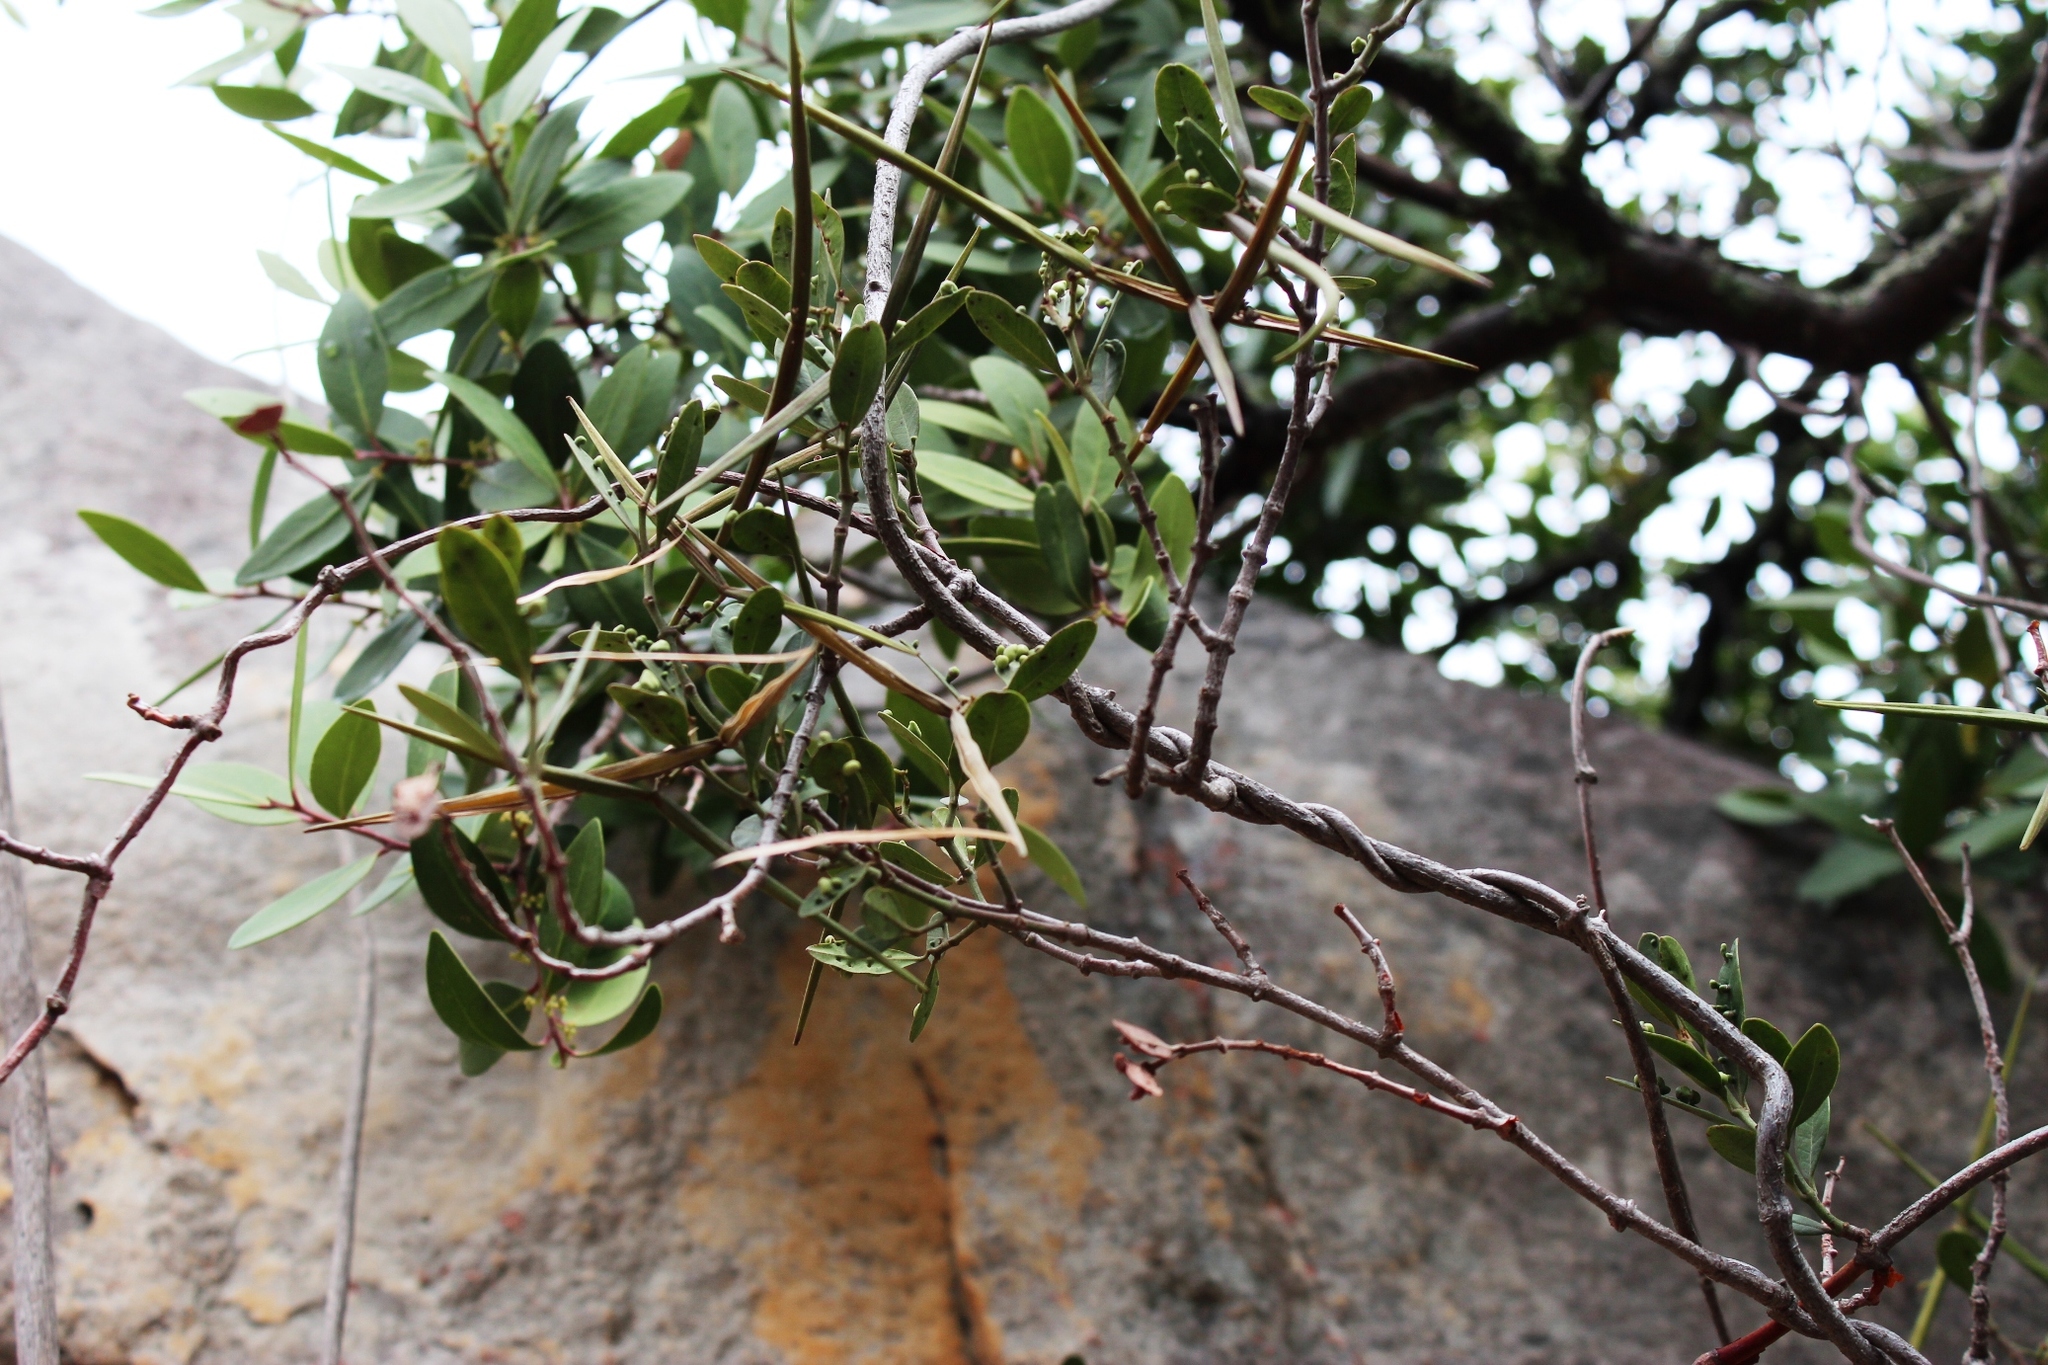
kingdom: Plantae
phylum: Tracheophyta
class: Magnoliopsida
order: Gentianales
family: Apocynaceae
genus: Secamone
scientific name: Secamone alpini
